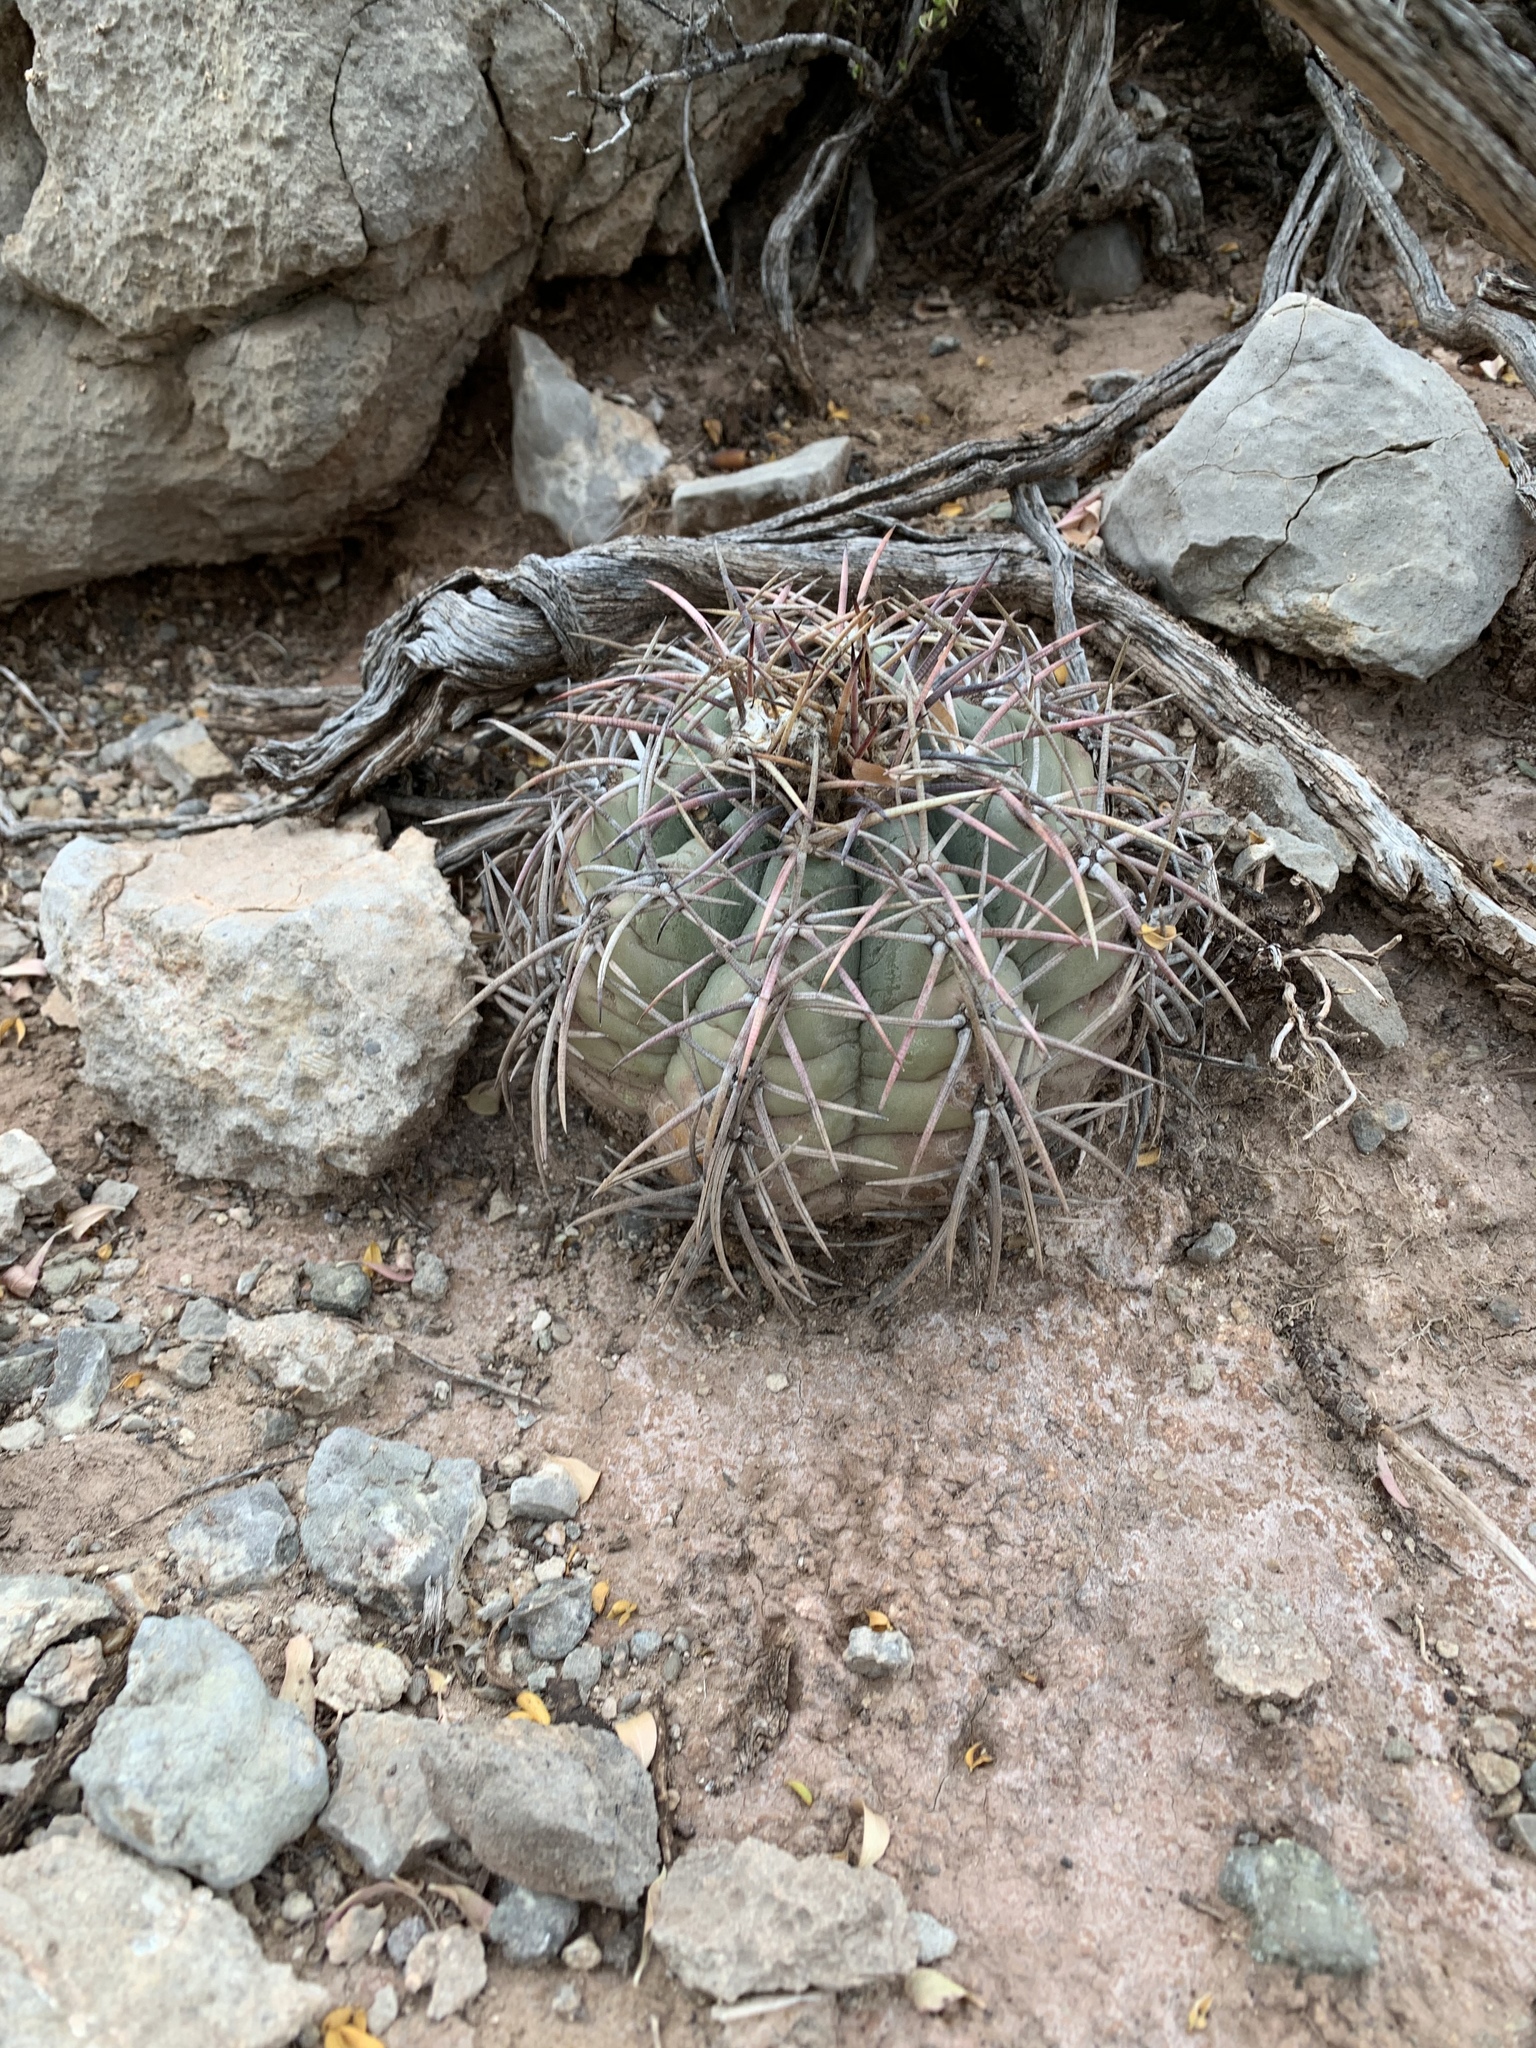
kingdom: Plantae
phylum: Tracheophyta
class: Magnoliopsida
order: Caryophyllales
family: Cactaceae
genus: Echinocactus
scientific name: Echinocactus horizonthalonius
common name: Devilshead
